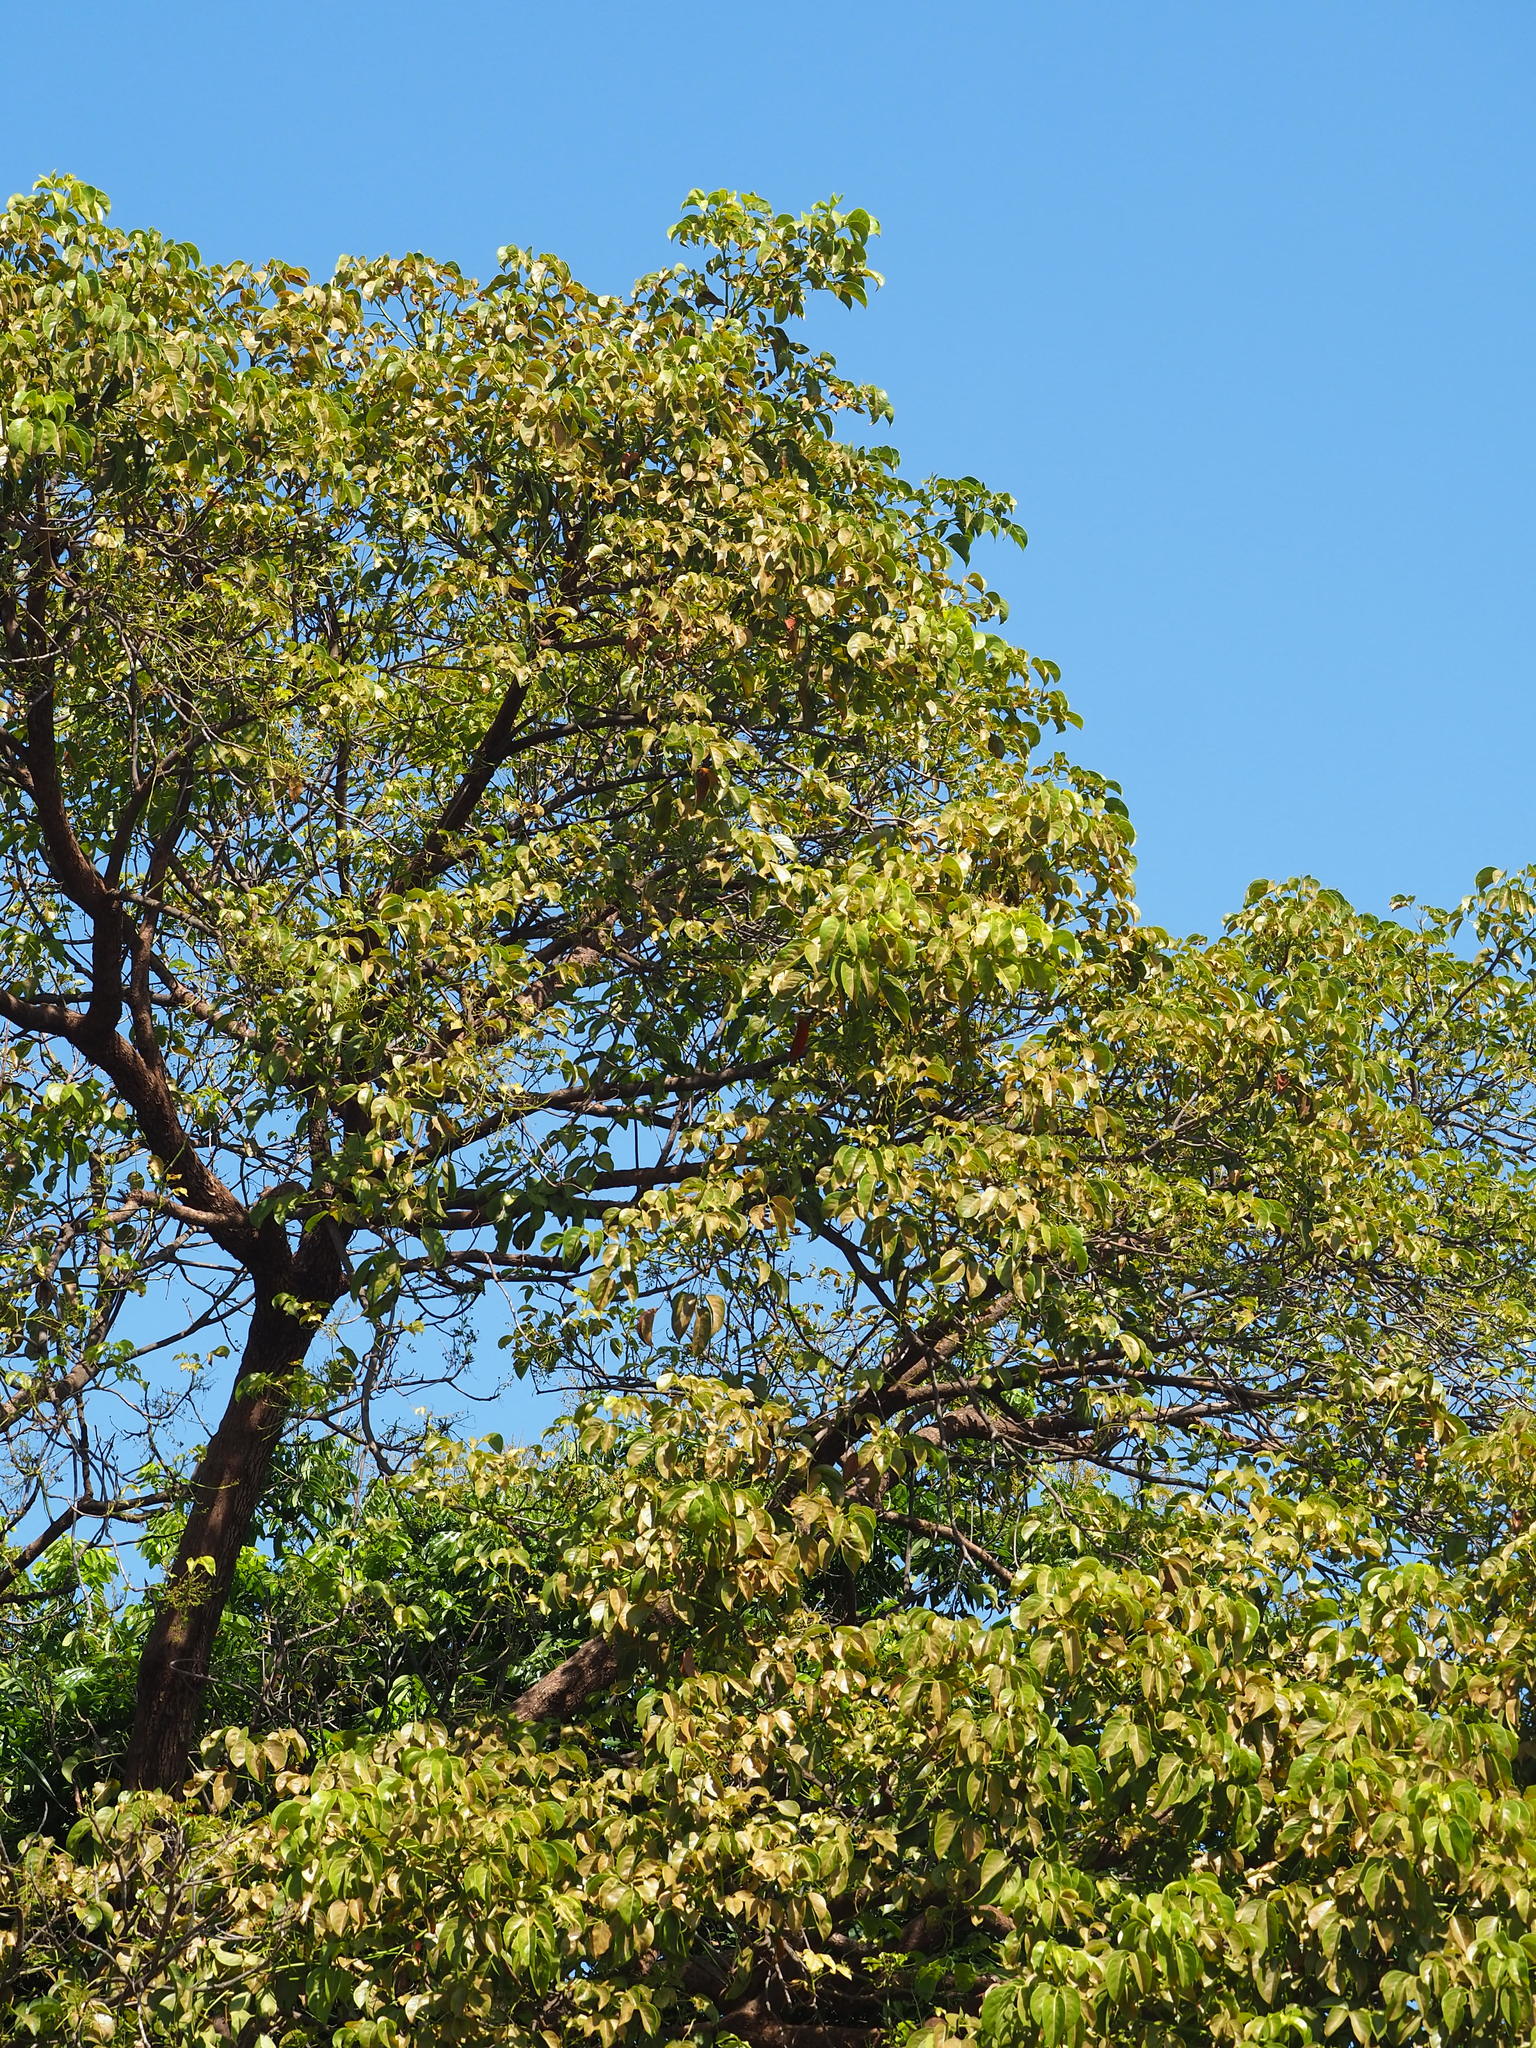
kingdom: Plantae
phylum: Tracheophyta
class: Magnoliopsida
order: Malpighiales
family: Phyllanthaceae
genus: Bischofia
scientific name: Bischofia javanica
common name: Javanese bishopwood
